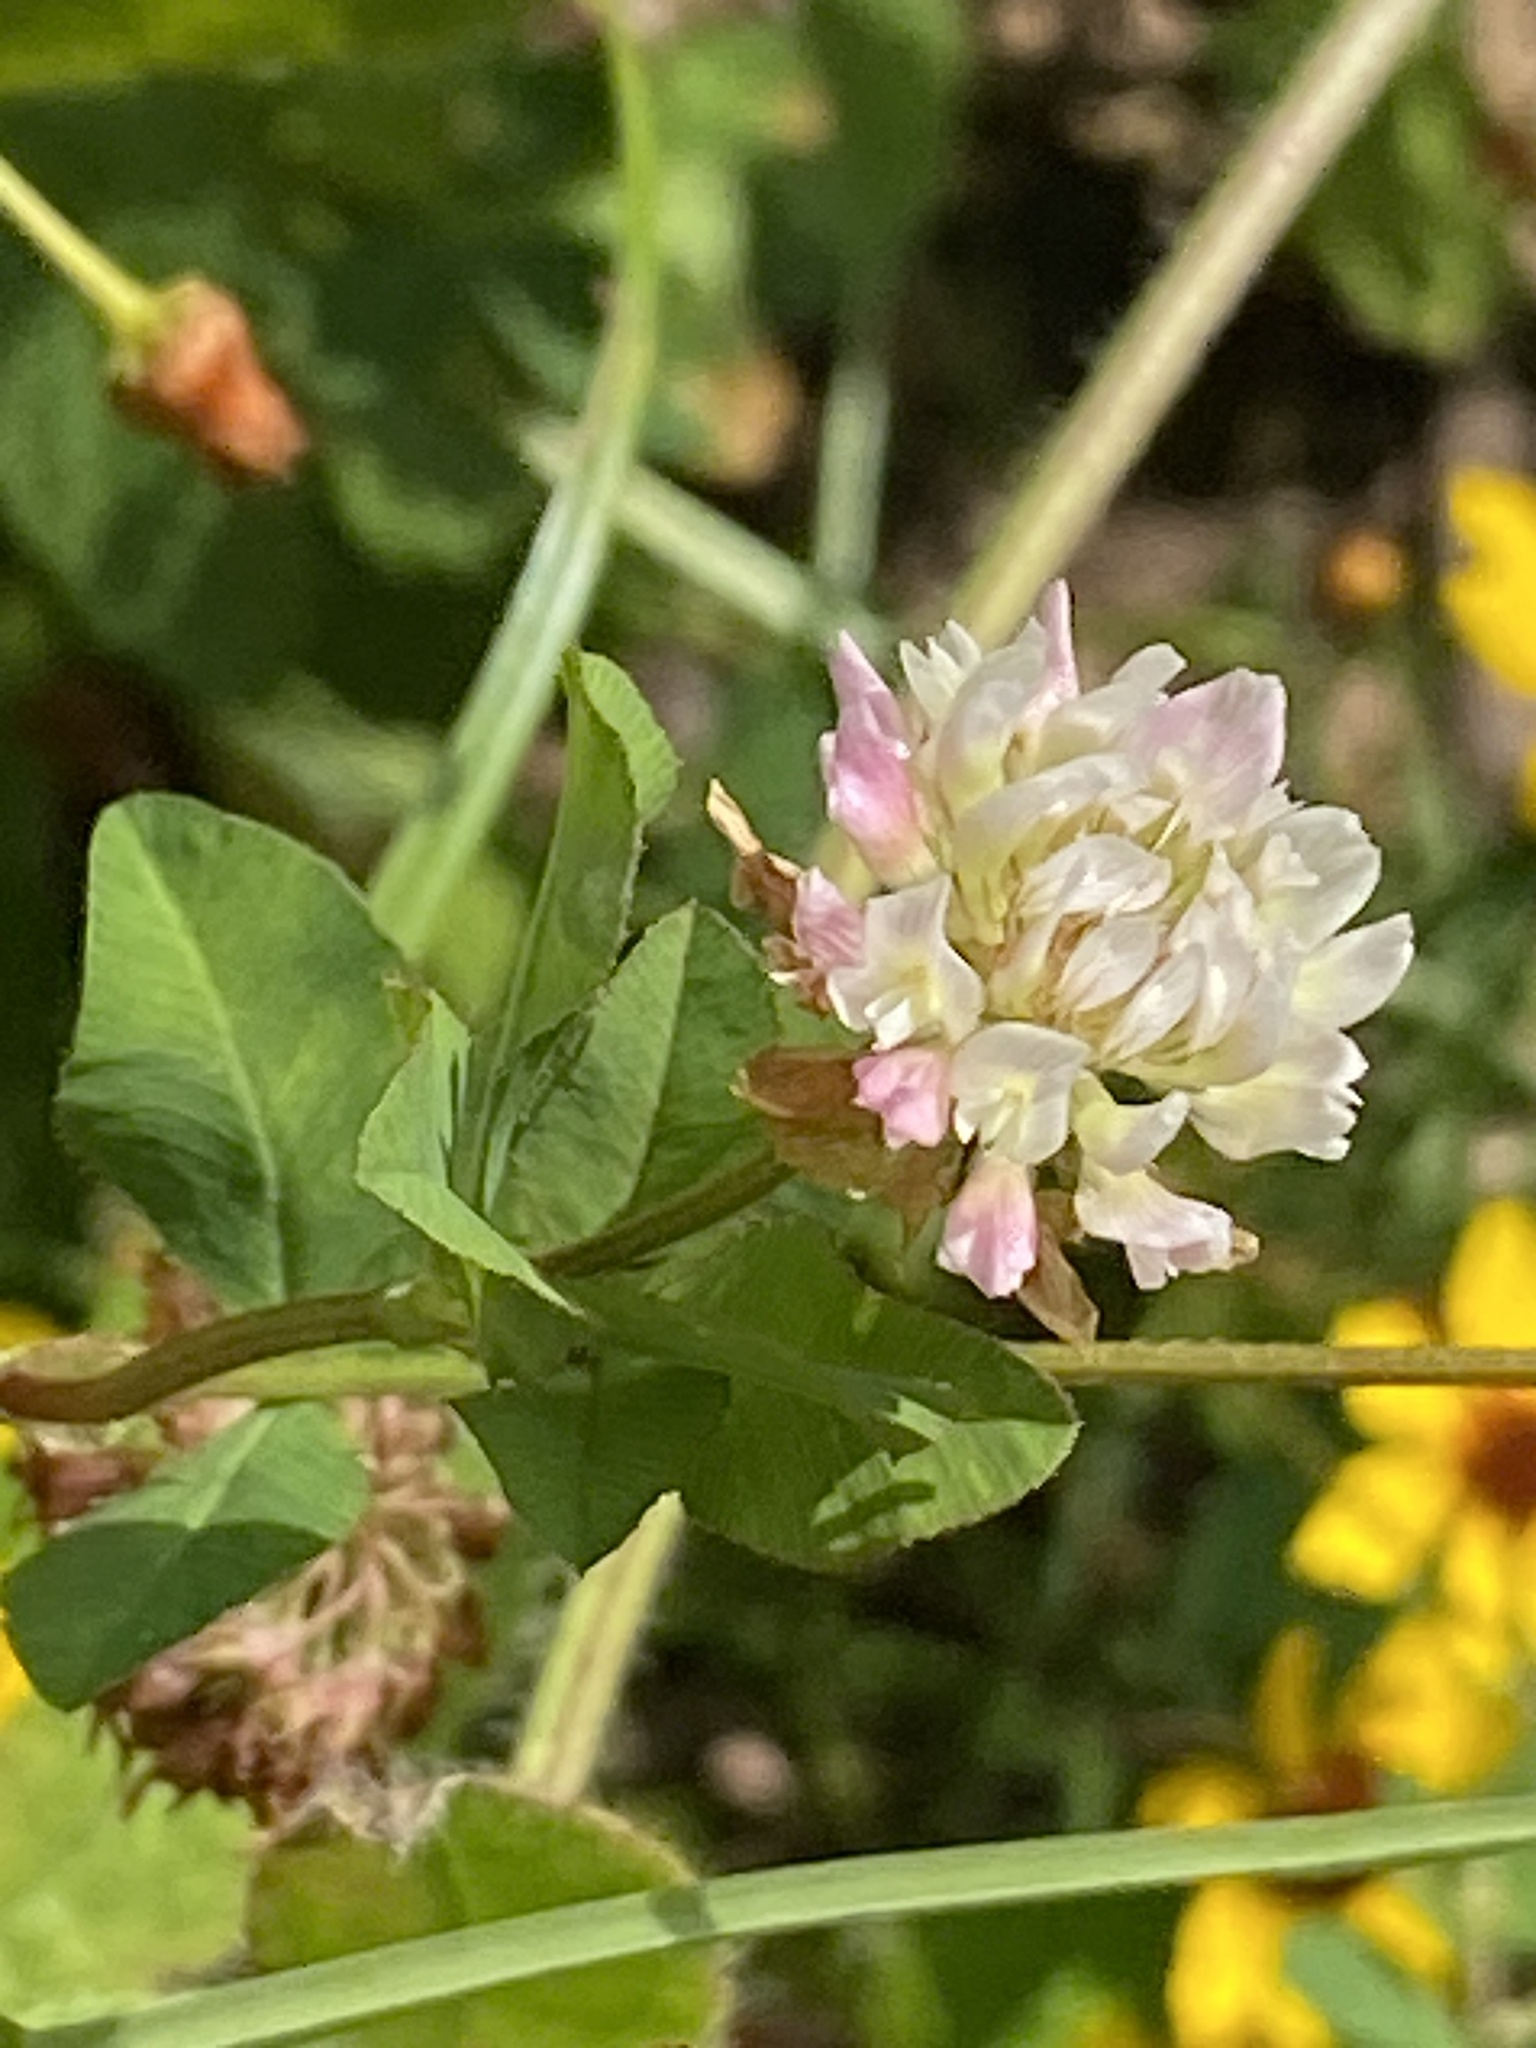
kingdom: Plantae
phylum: Tracheophyta
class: Magnoliopsida
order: Fabales
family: Fabaceae
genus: Trifolium
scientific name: Trifolium hybridum
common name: Alsike clover
